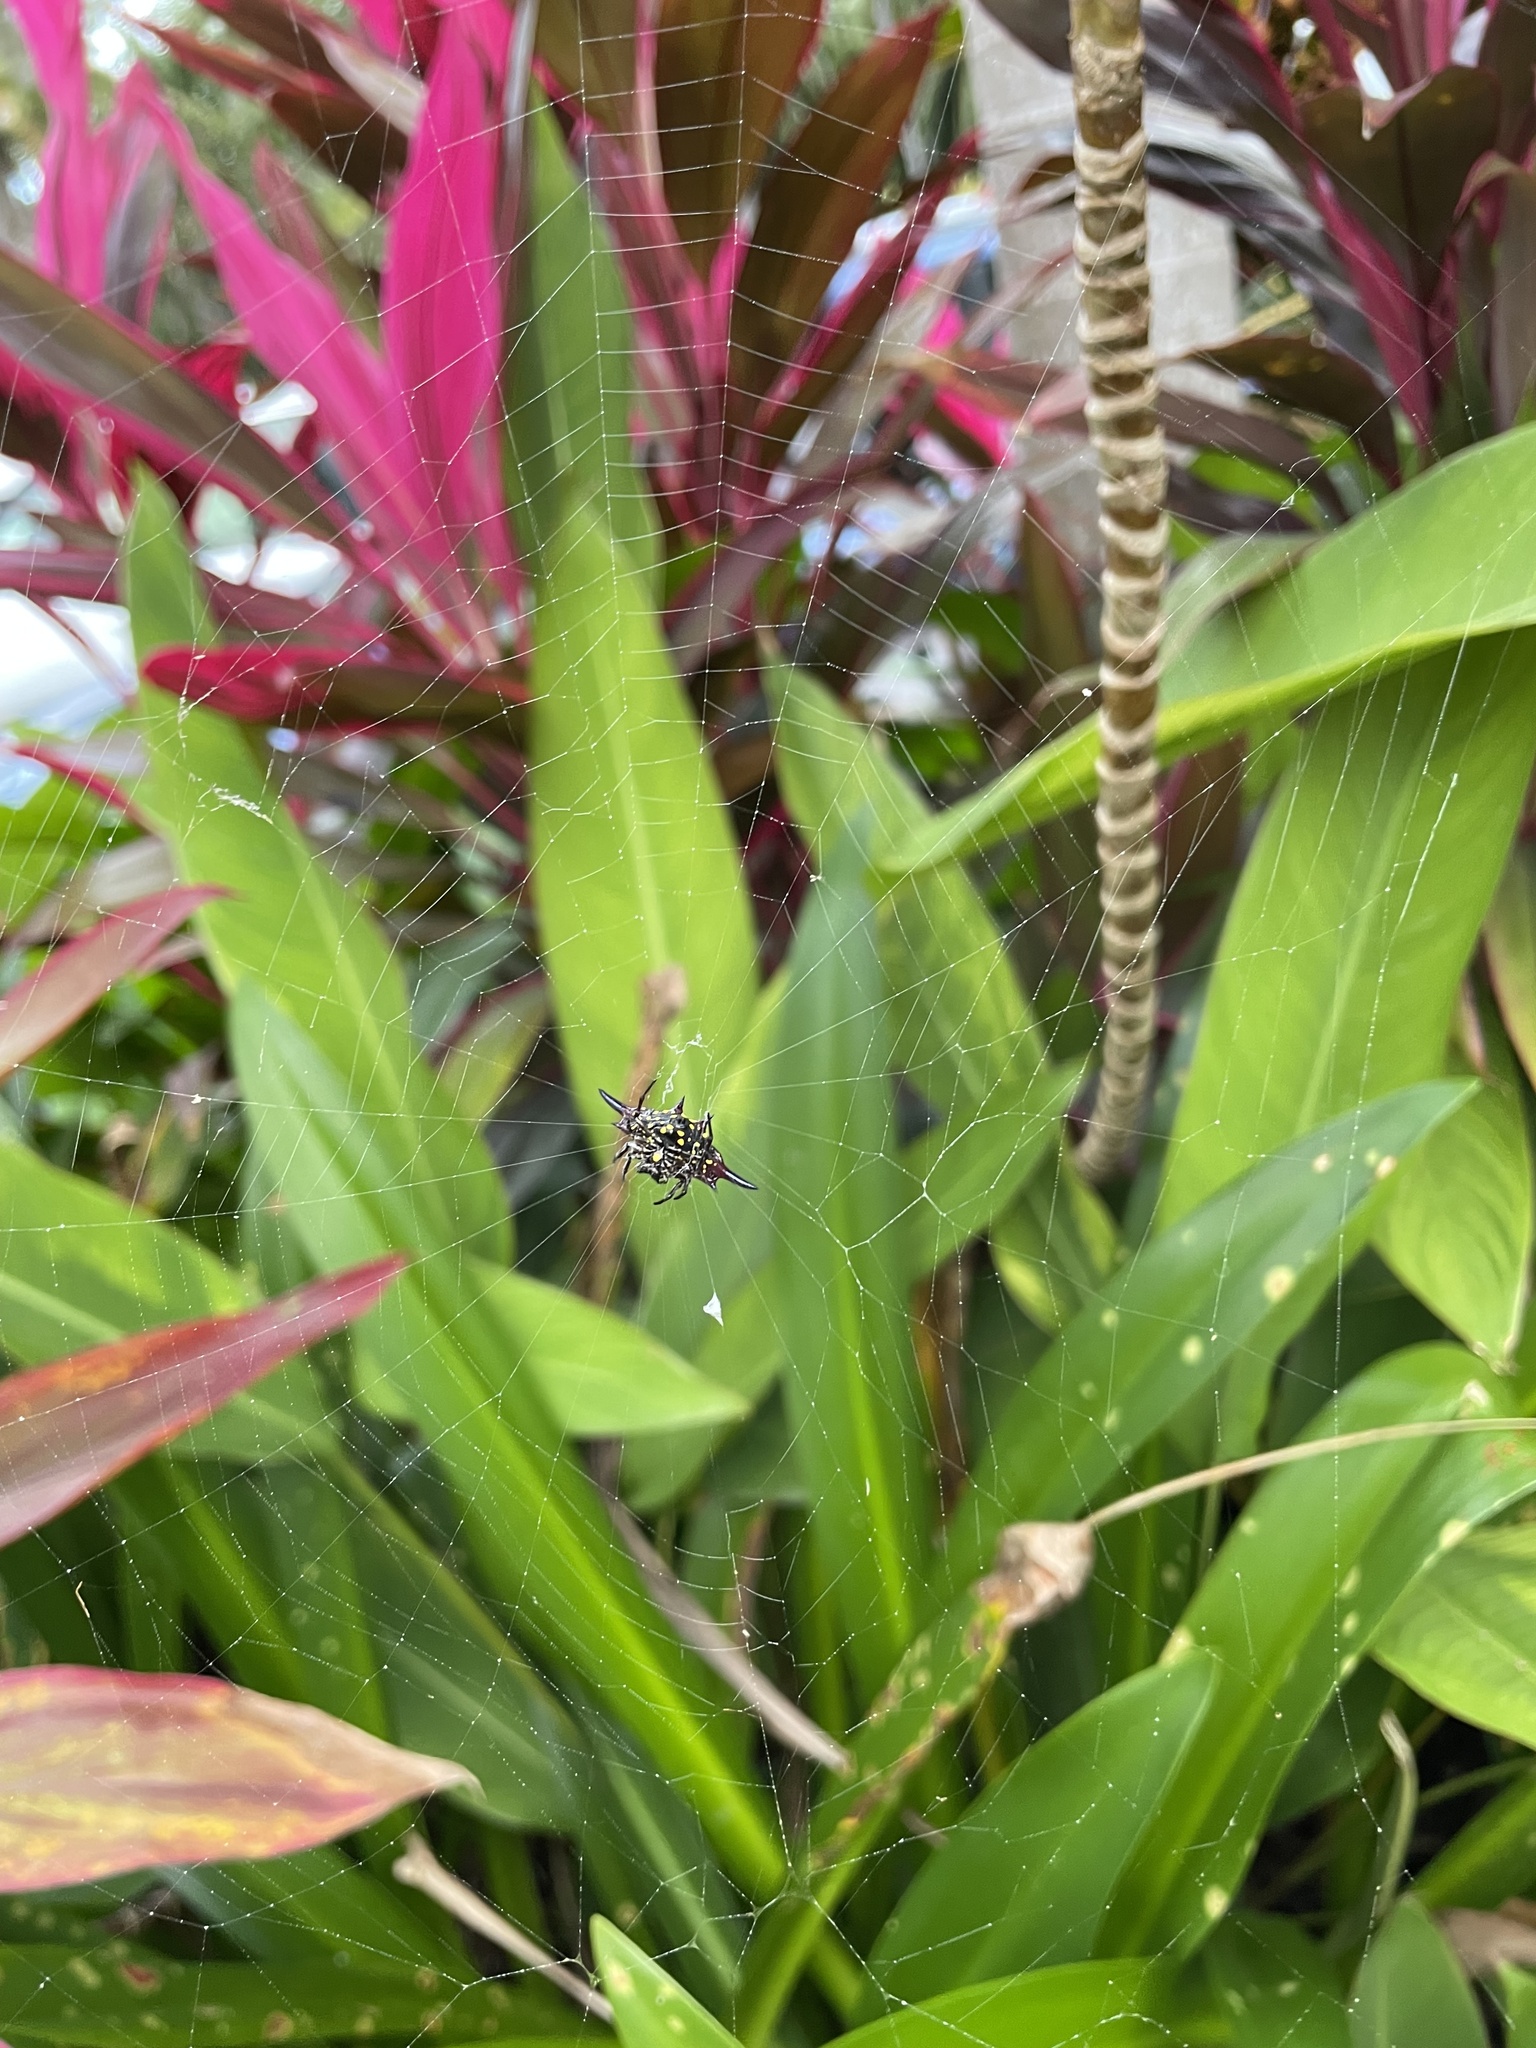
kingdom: Animalia
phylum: Arthropoda
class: Arachnida
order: Araneae
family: Araneidae
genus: Gasteracantha
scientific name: Gasteracantha fornicata
